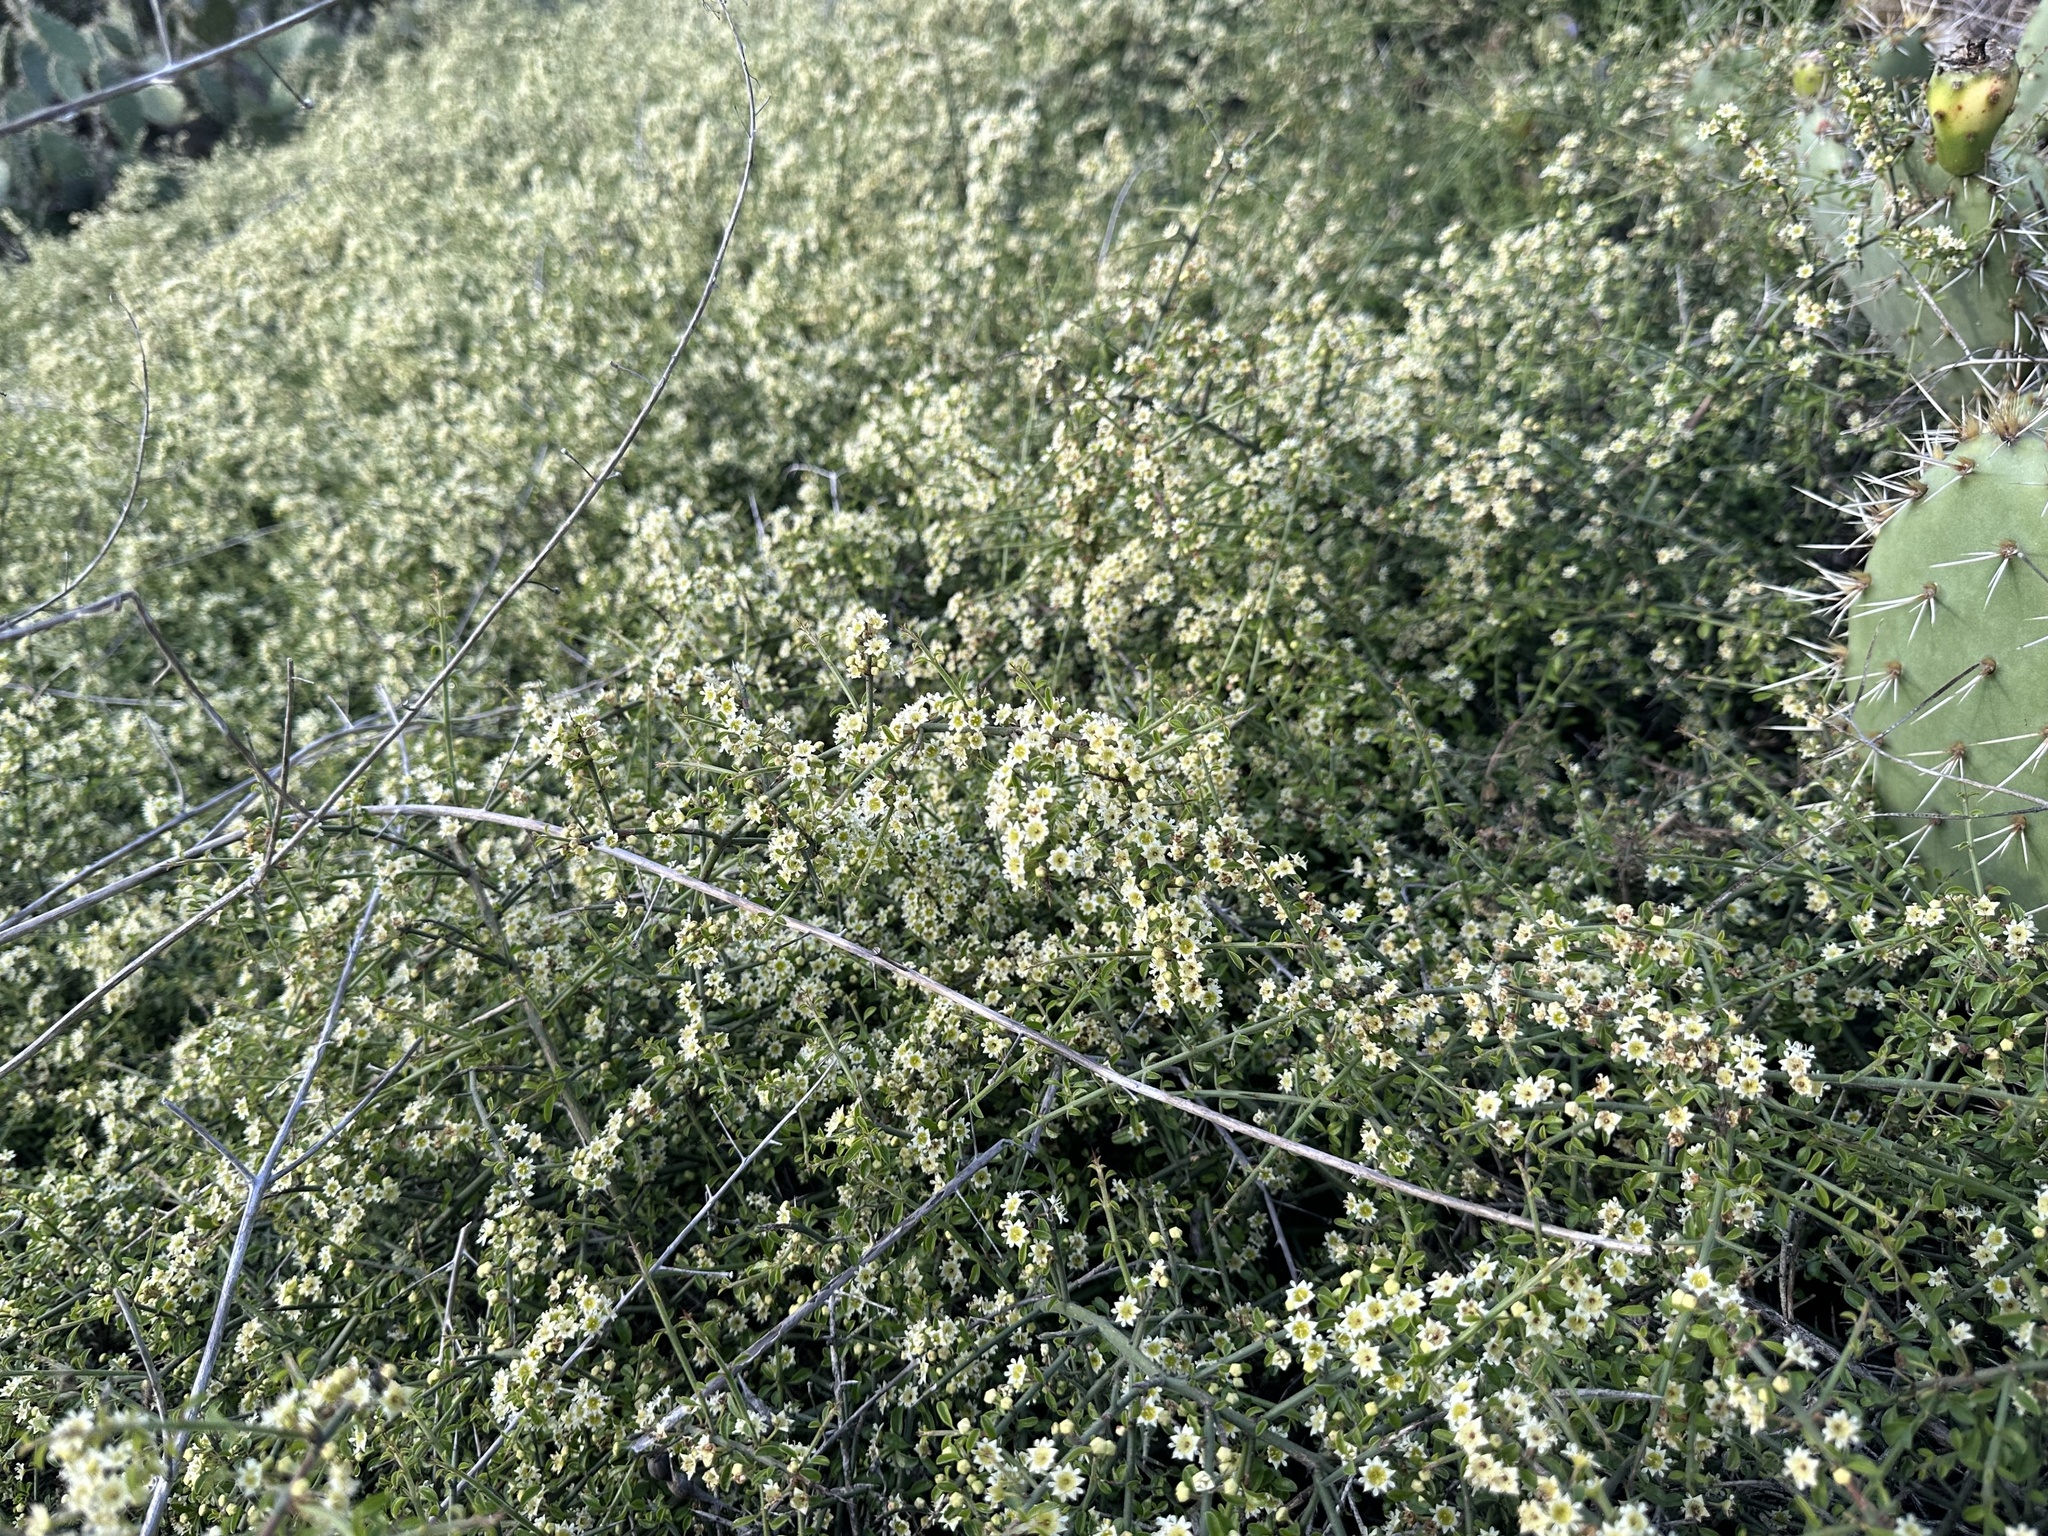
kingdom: Plantae
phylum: Tracheophyta
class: Magnoliopsida
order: Rosales
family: Rhamnaceae
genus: Adolphia
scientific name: Adolphia californica
